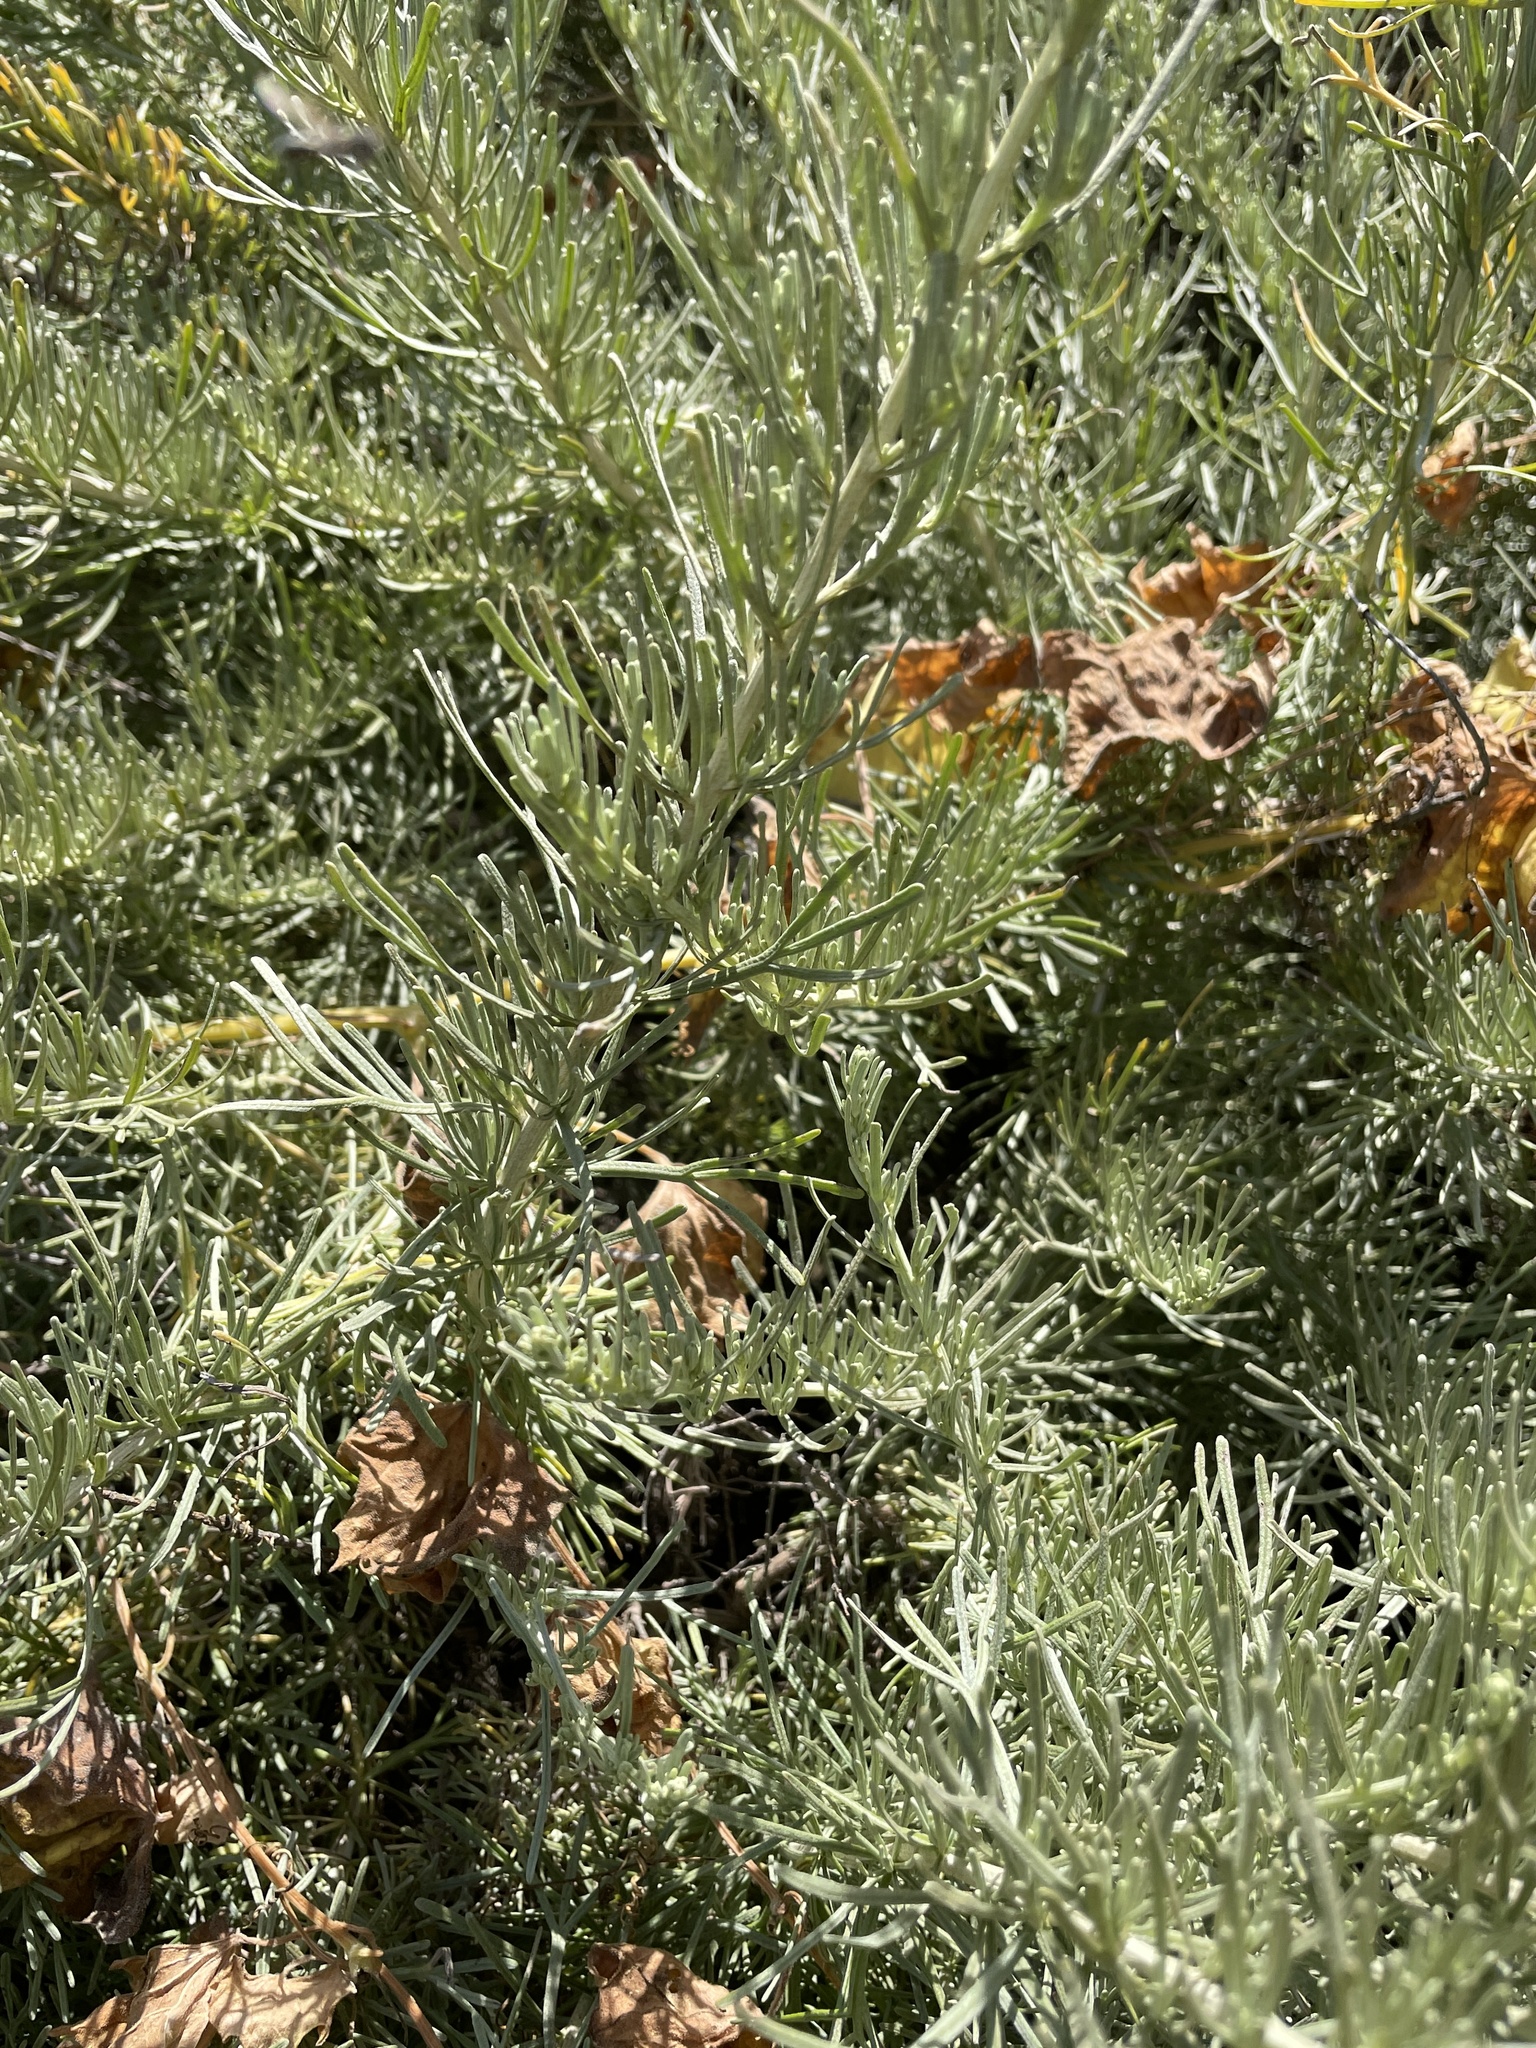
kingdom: Plantae
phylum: Tracheophyta
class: Magnoliopsida
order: Asterales
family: Asteraceae
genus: Artemisia
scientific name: Artemisia californica
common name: California sagebrush
